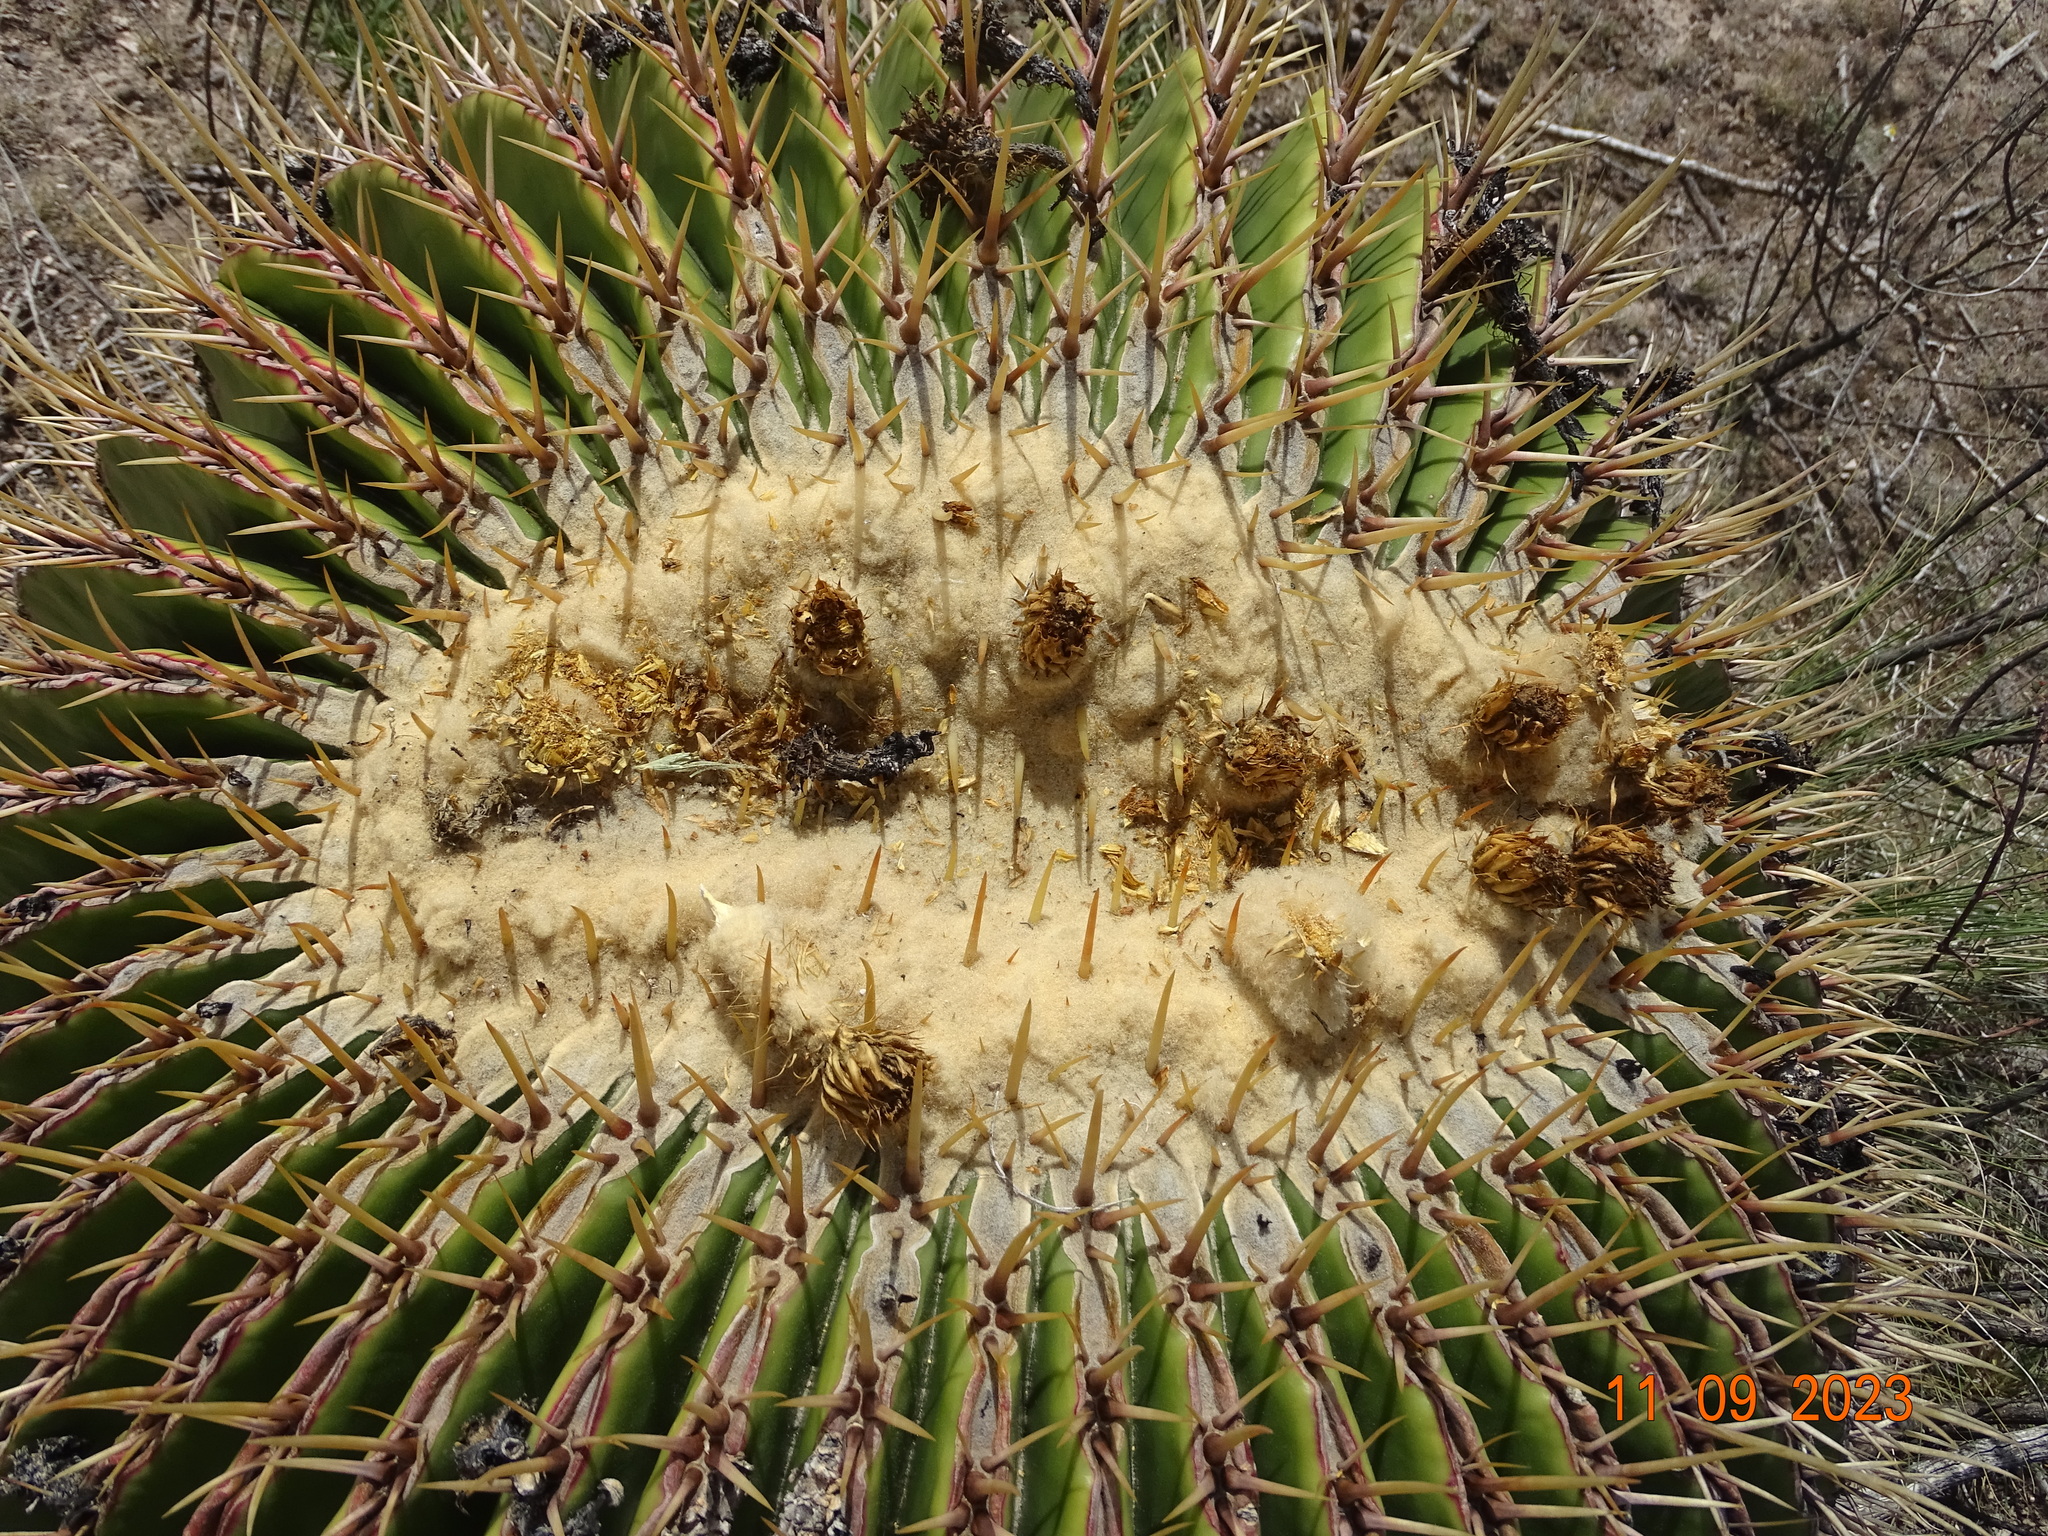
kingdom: Plantae
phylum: Tracheophyta
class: Magnoliopsida
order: Caryophyllales
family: Cactaceae
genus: Echinocactus
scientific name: Echinocactus platyacanthus
